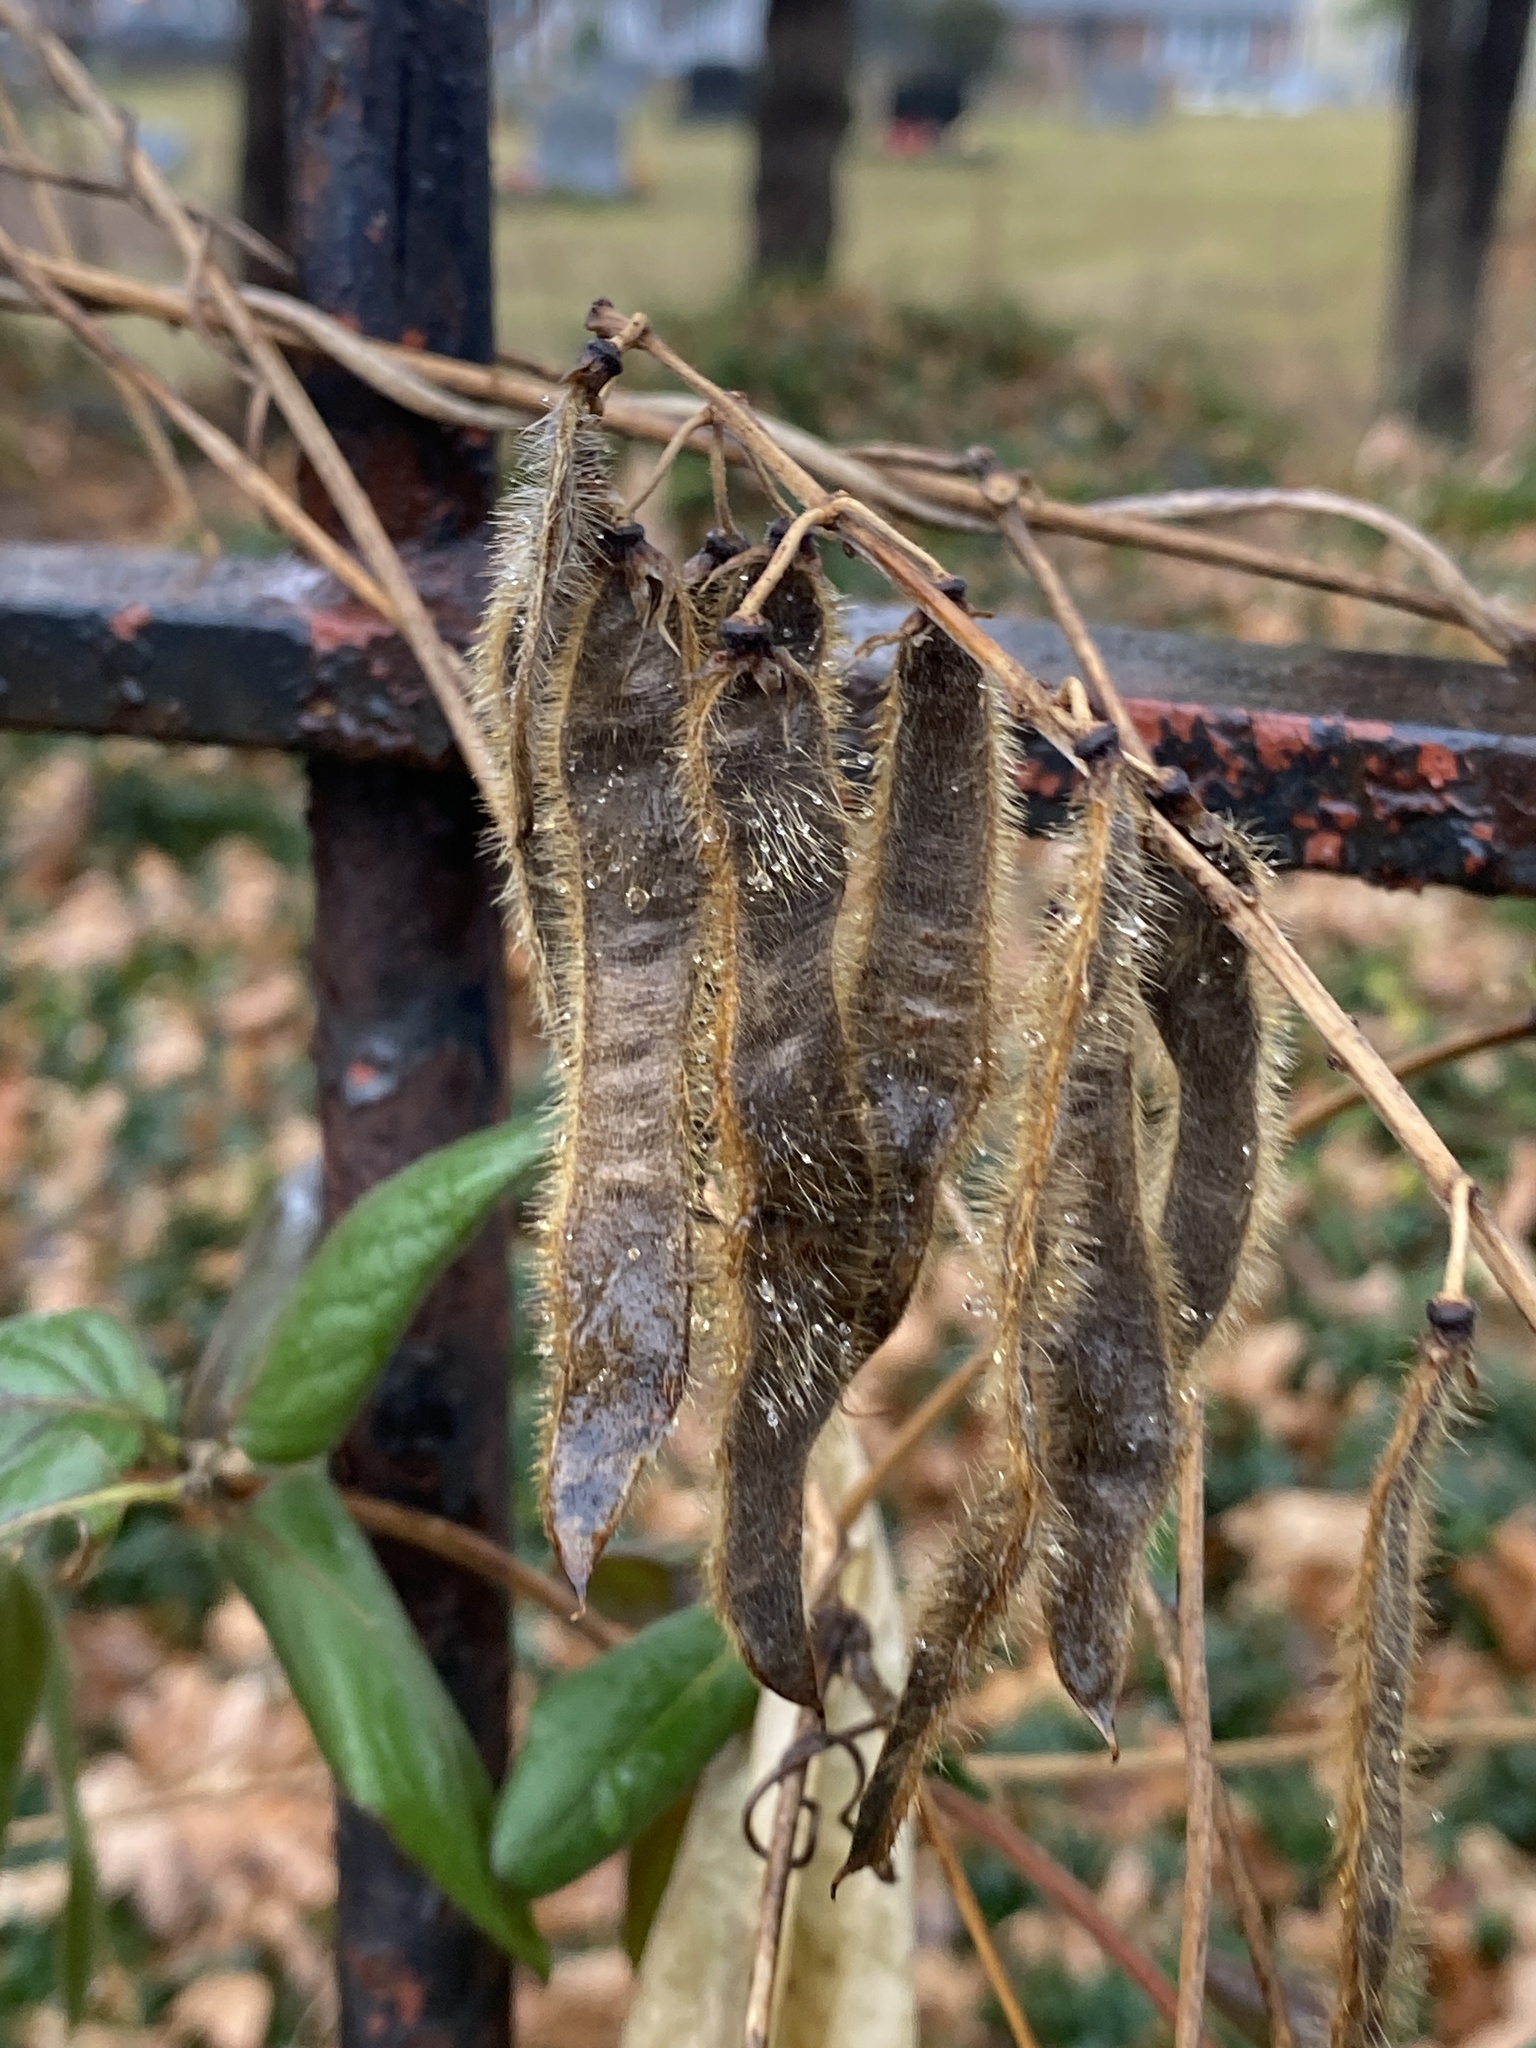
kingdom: Plantae
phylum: Tracheophyta
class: Magnoliopsida
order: Fabales
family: Fabaceae
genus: Pueraria
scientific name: Pueraria montana
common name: Kudzu
